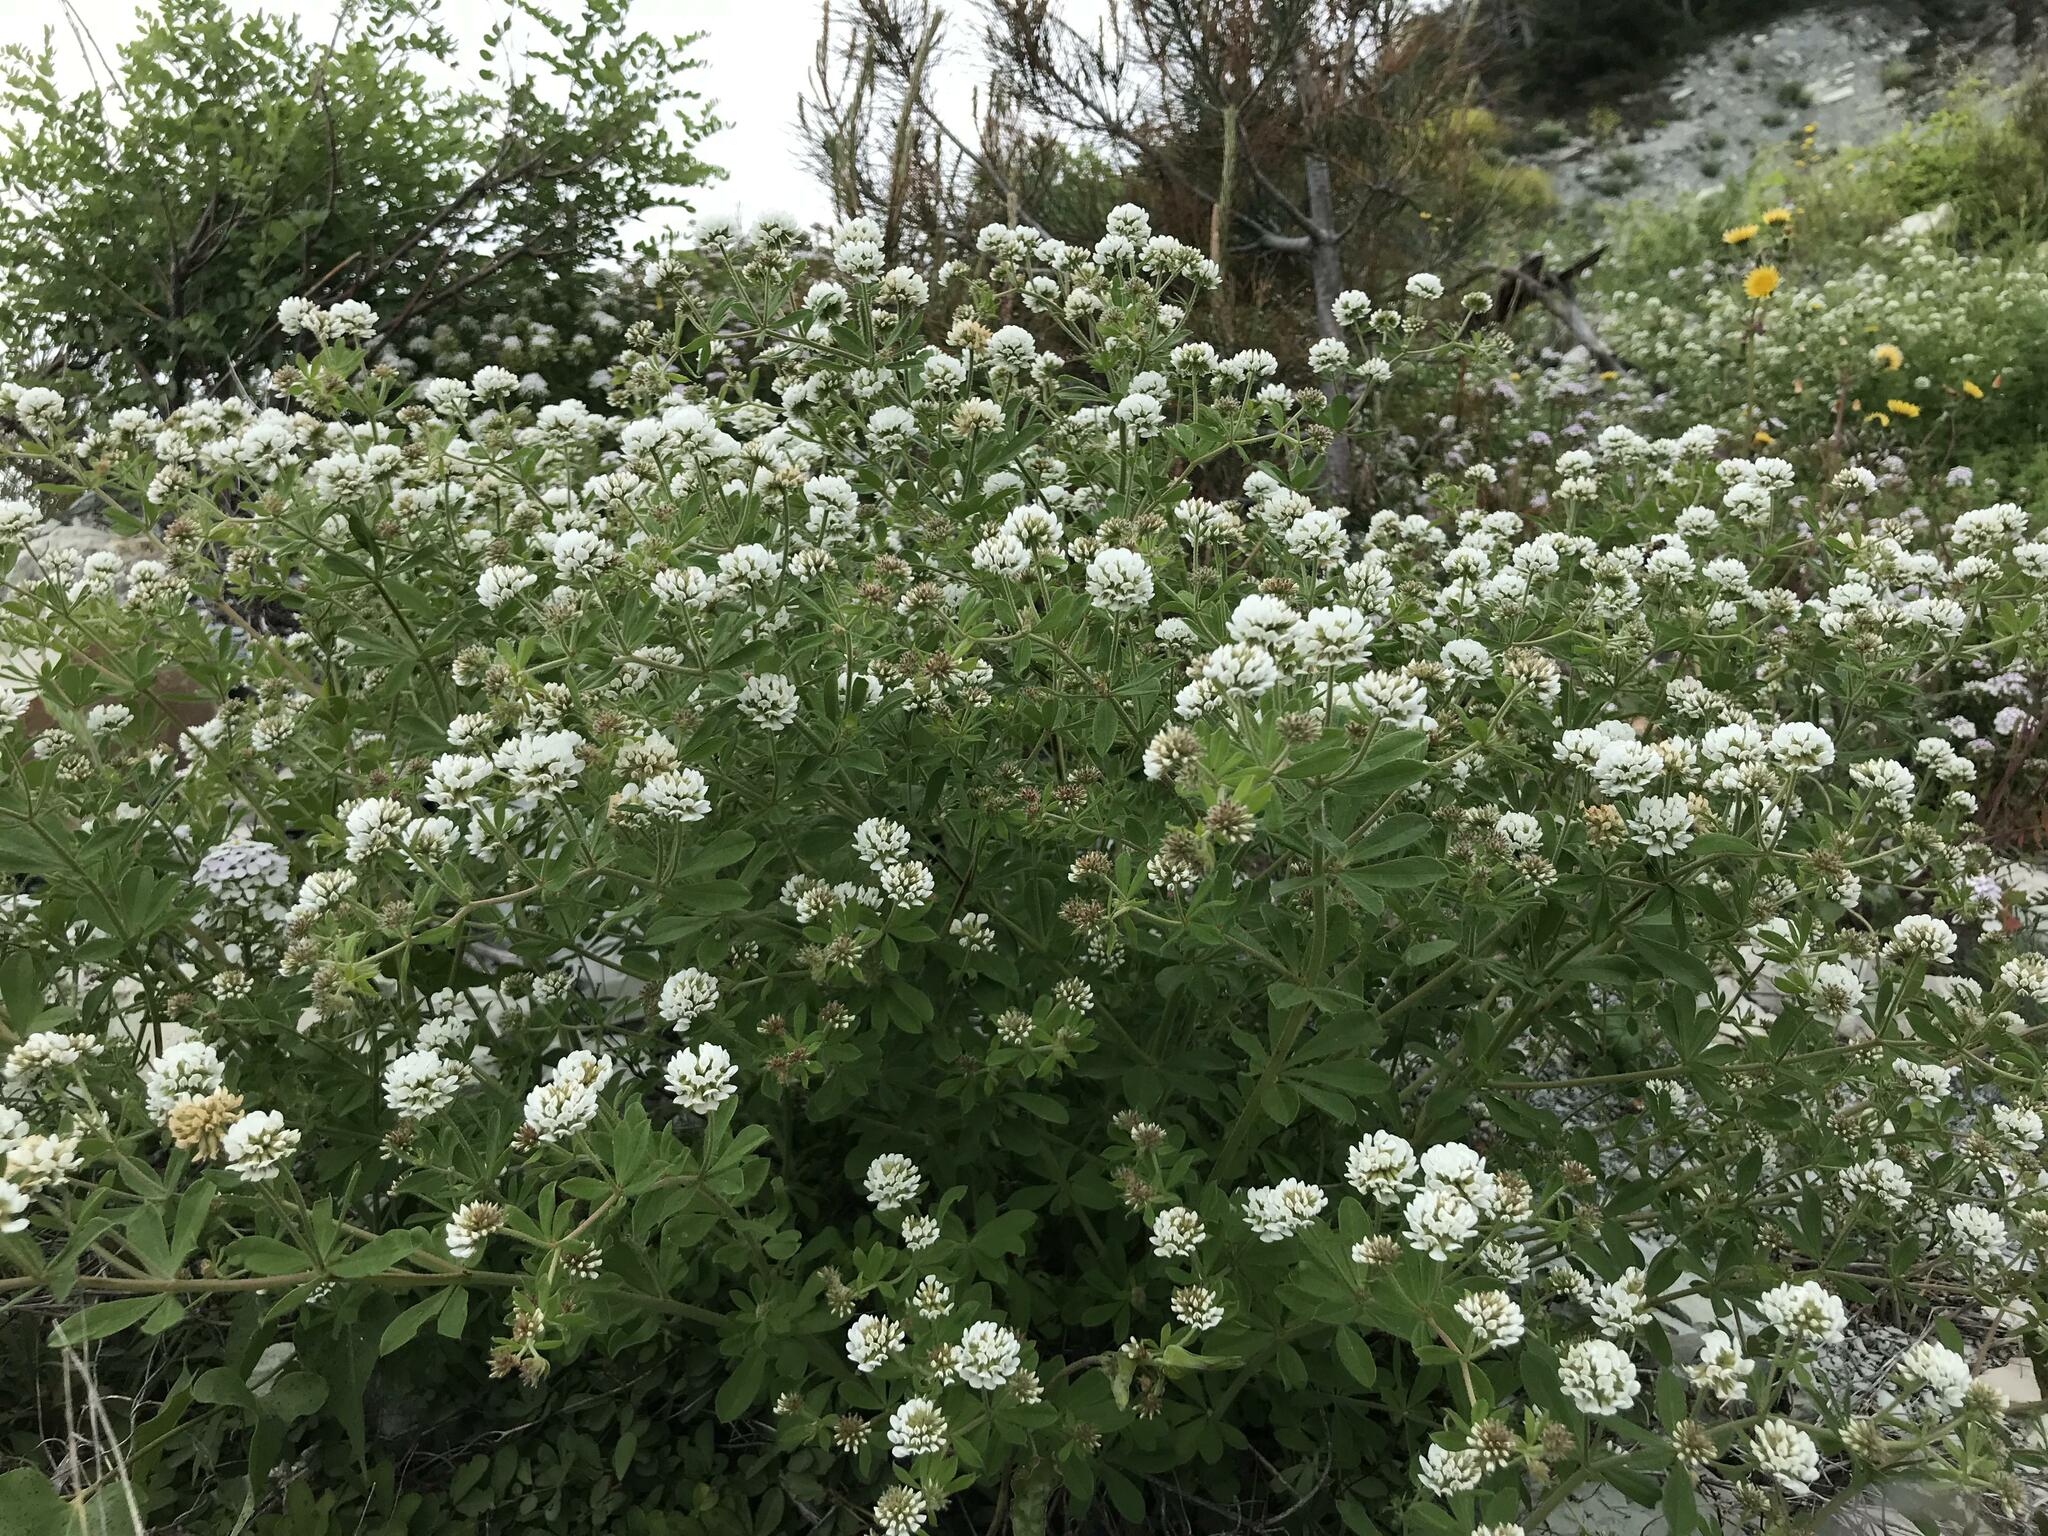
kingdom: Plantae
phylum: Tracheophyta
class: Magnoliopsida
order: Fabales
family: Fabaceae
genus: Lotus
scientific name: Lotus herbaceus
